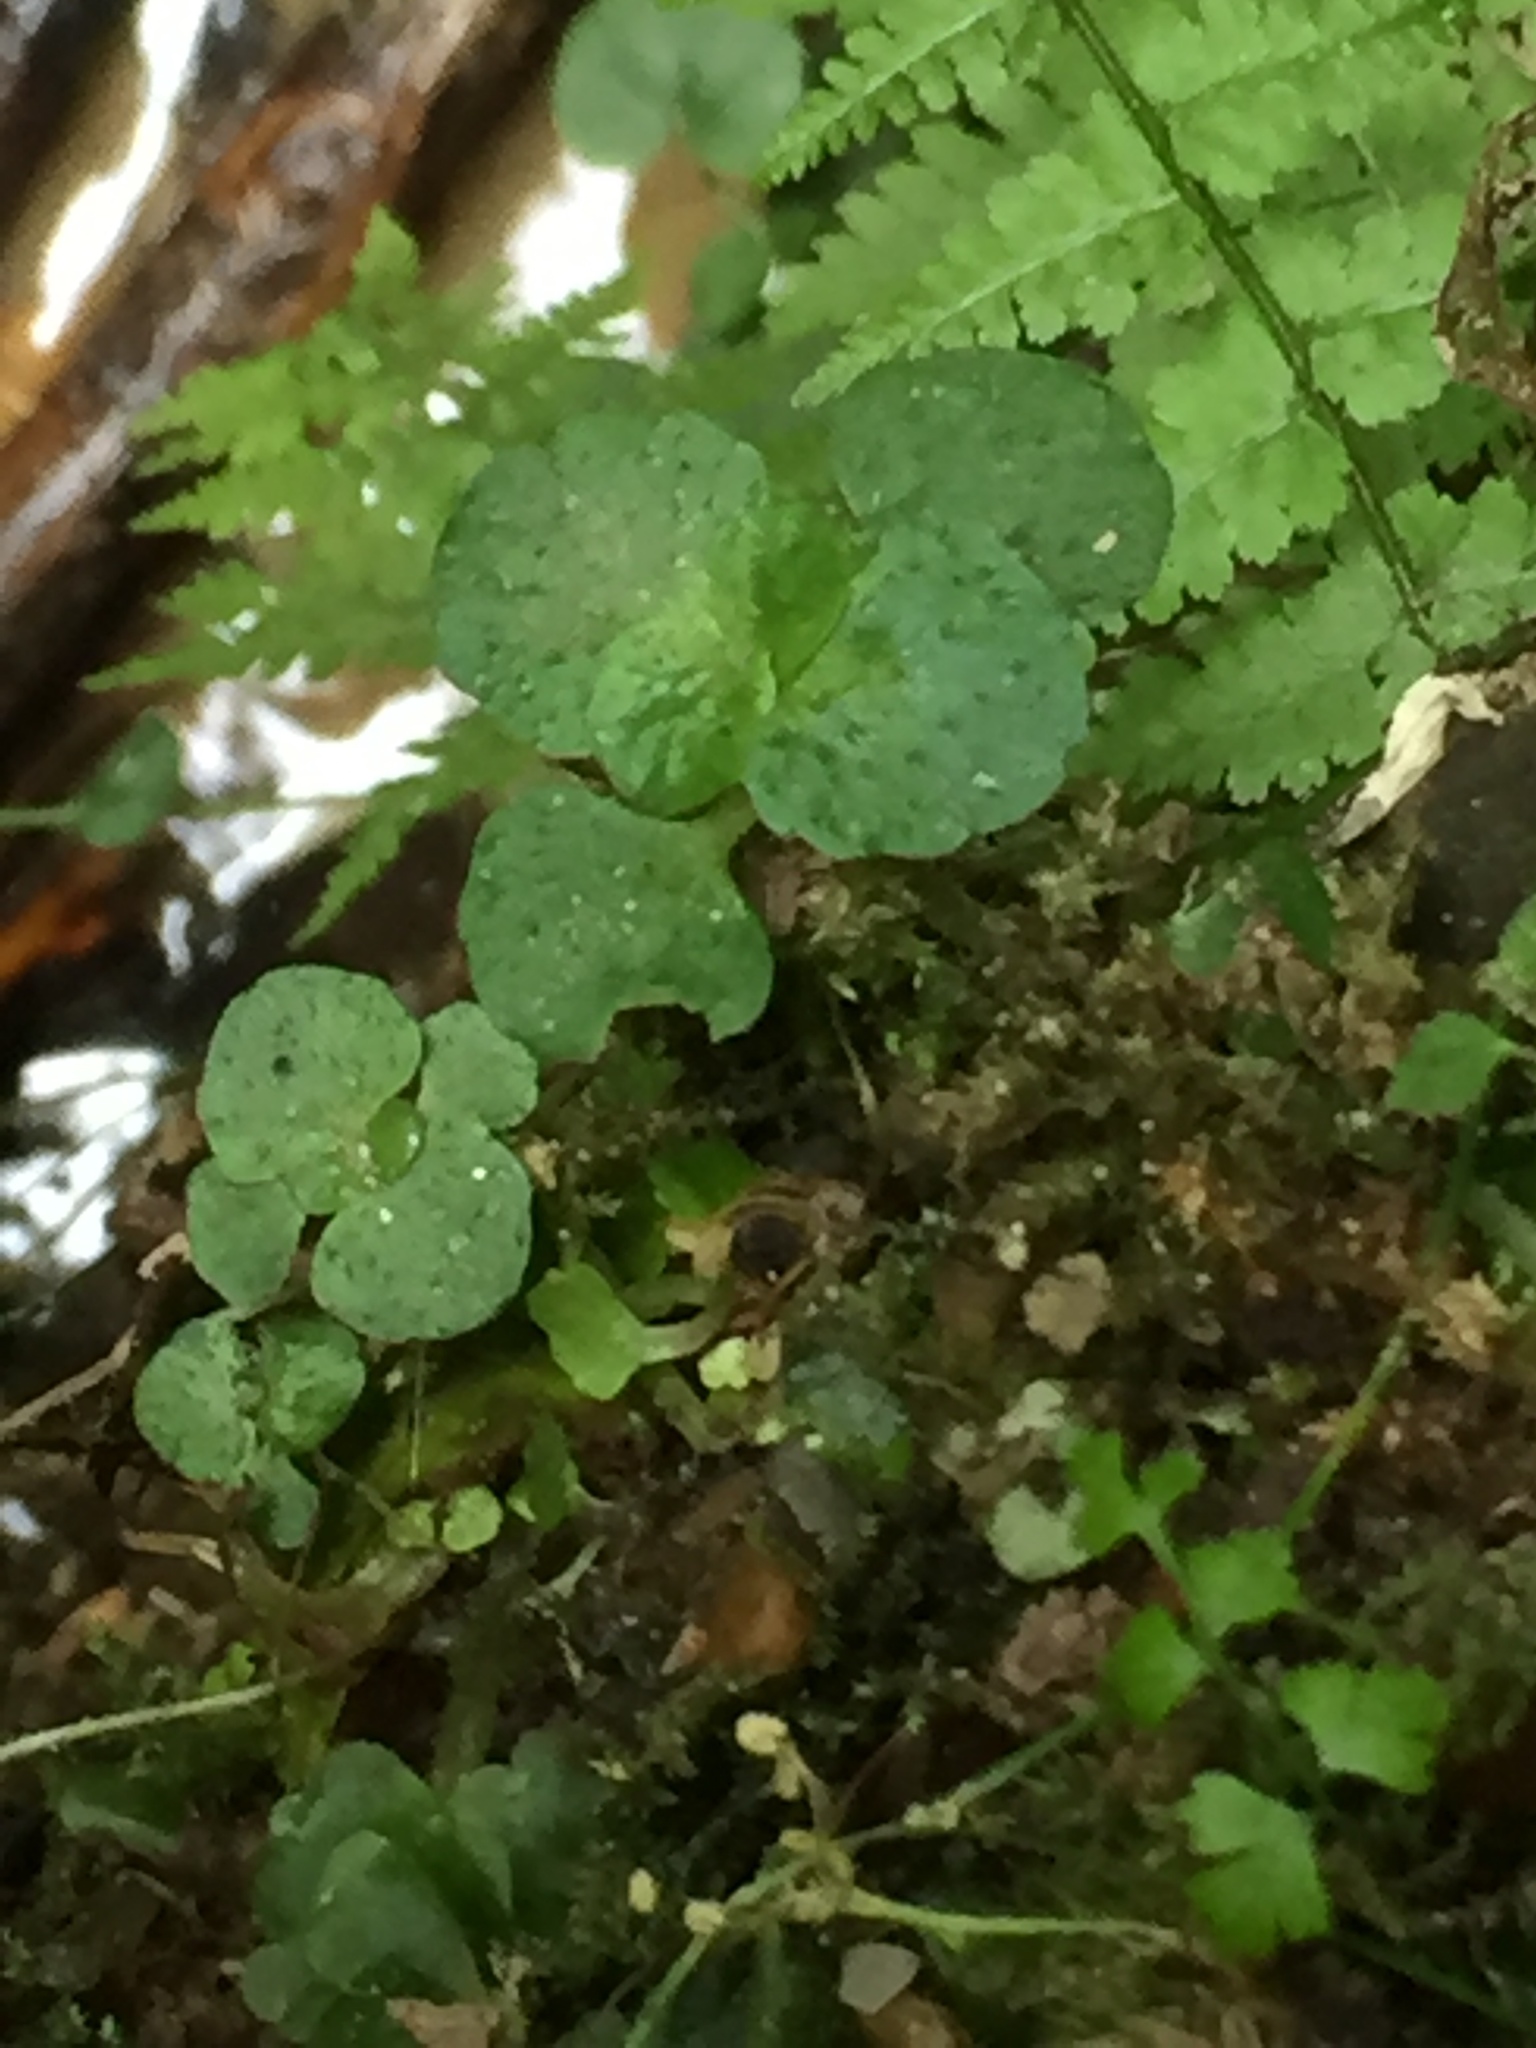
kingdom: Plantae
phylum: Tracheophyta
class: Magnoliopsida
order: Saxifragales
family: Saxifragaceae
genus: Chrysosplenium
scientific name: Chrysosplenium oppositifolium
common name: Opposite-leaved golden-saxifrage
